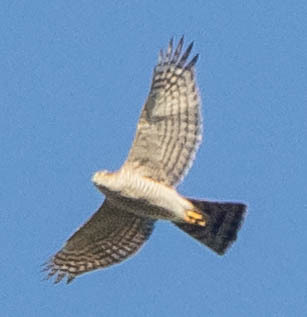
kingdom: Animalia
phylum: Chordata
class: Aves
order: Accipitriformes
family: Accipitridae
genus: Accipiter
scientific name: Accipiter nisus
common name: Eurasian sparrowhawk
